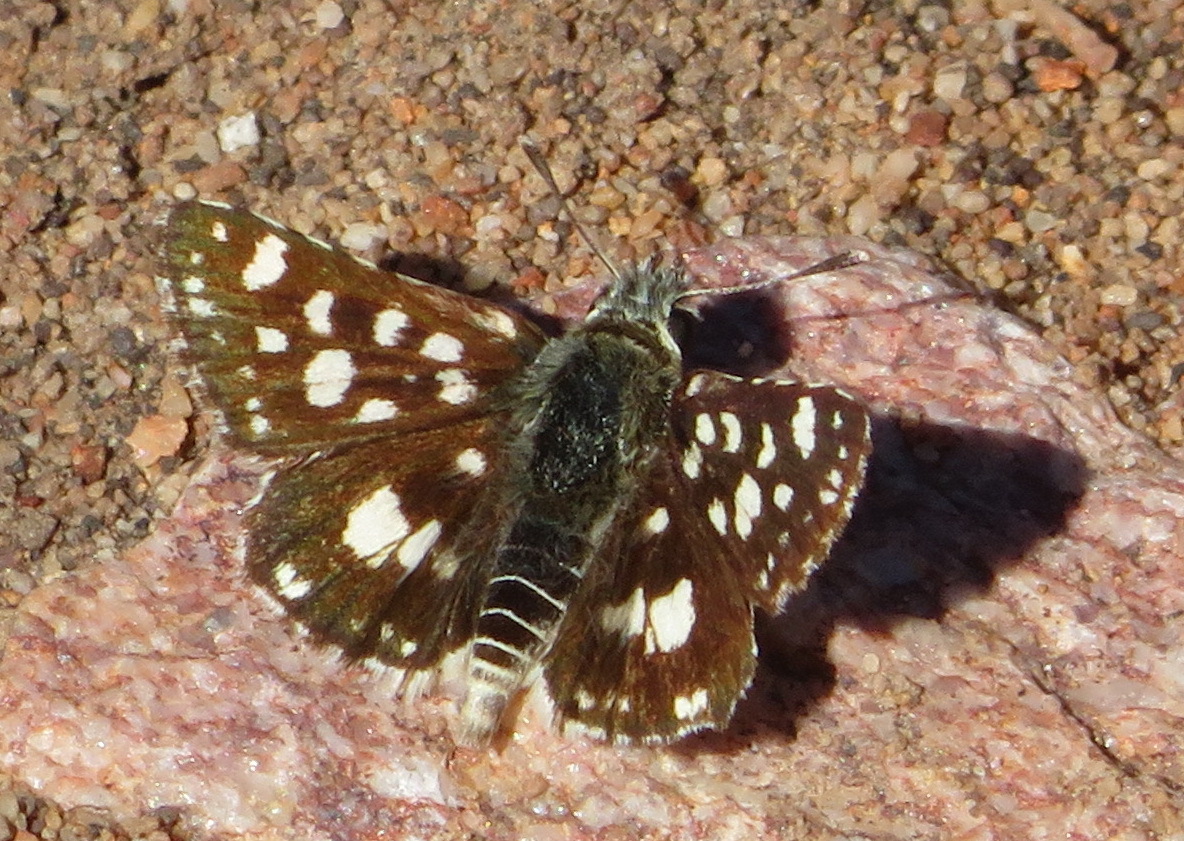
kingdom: Animalia
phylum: Arthropoda
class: Insecta
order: Lepidoptera
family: Hesperiidae
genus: Spialia
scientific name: Spialia spio
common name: Mountain sandman
